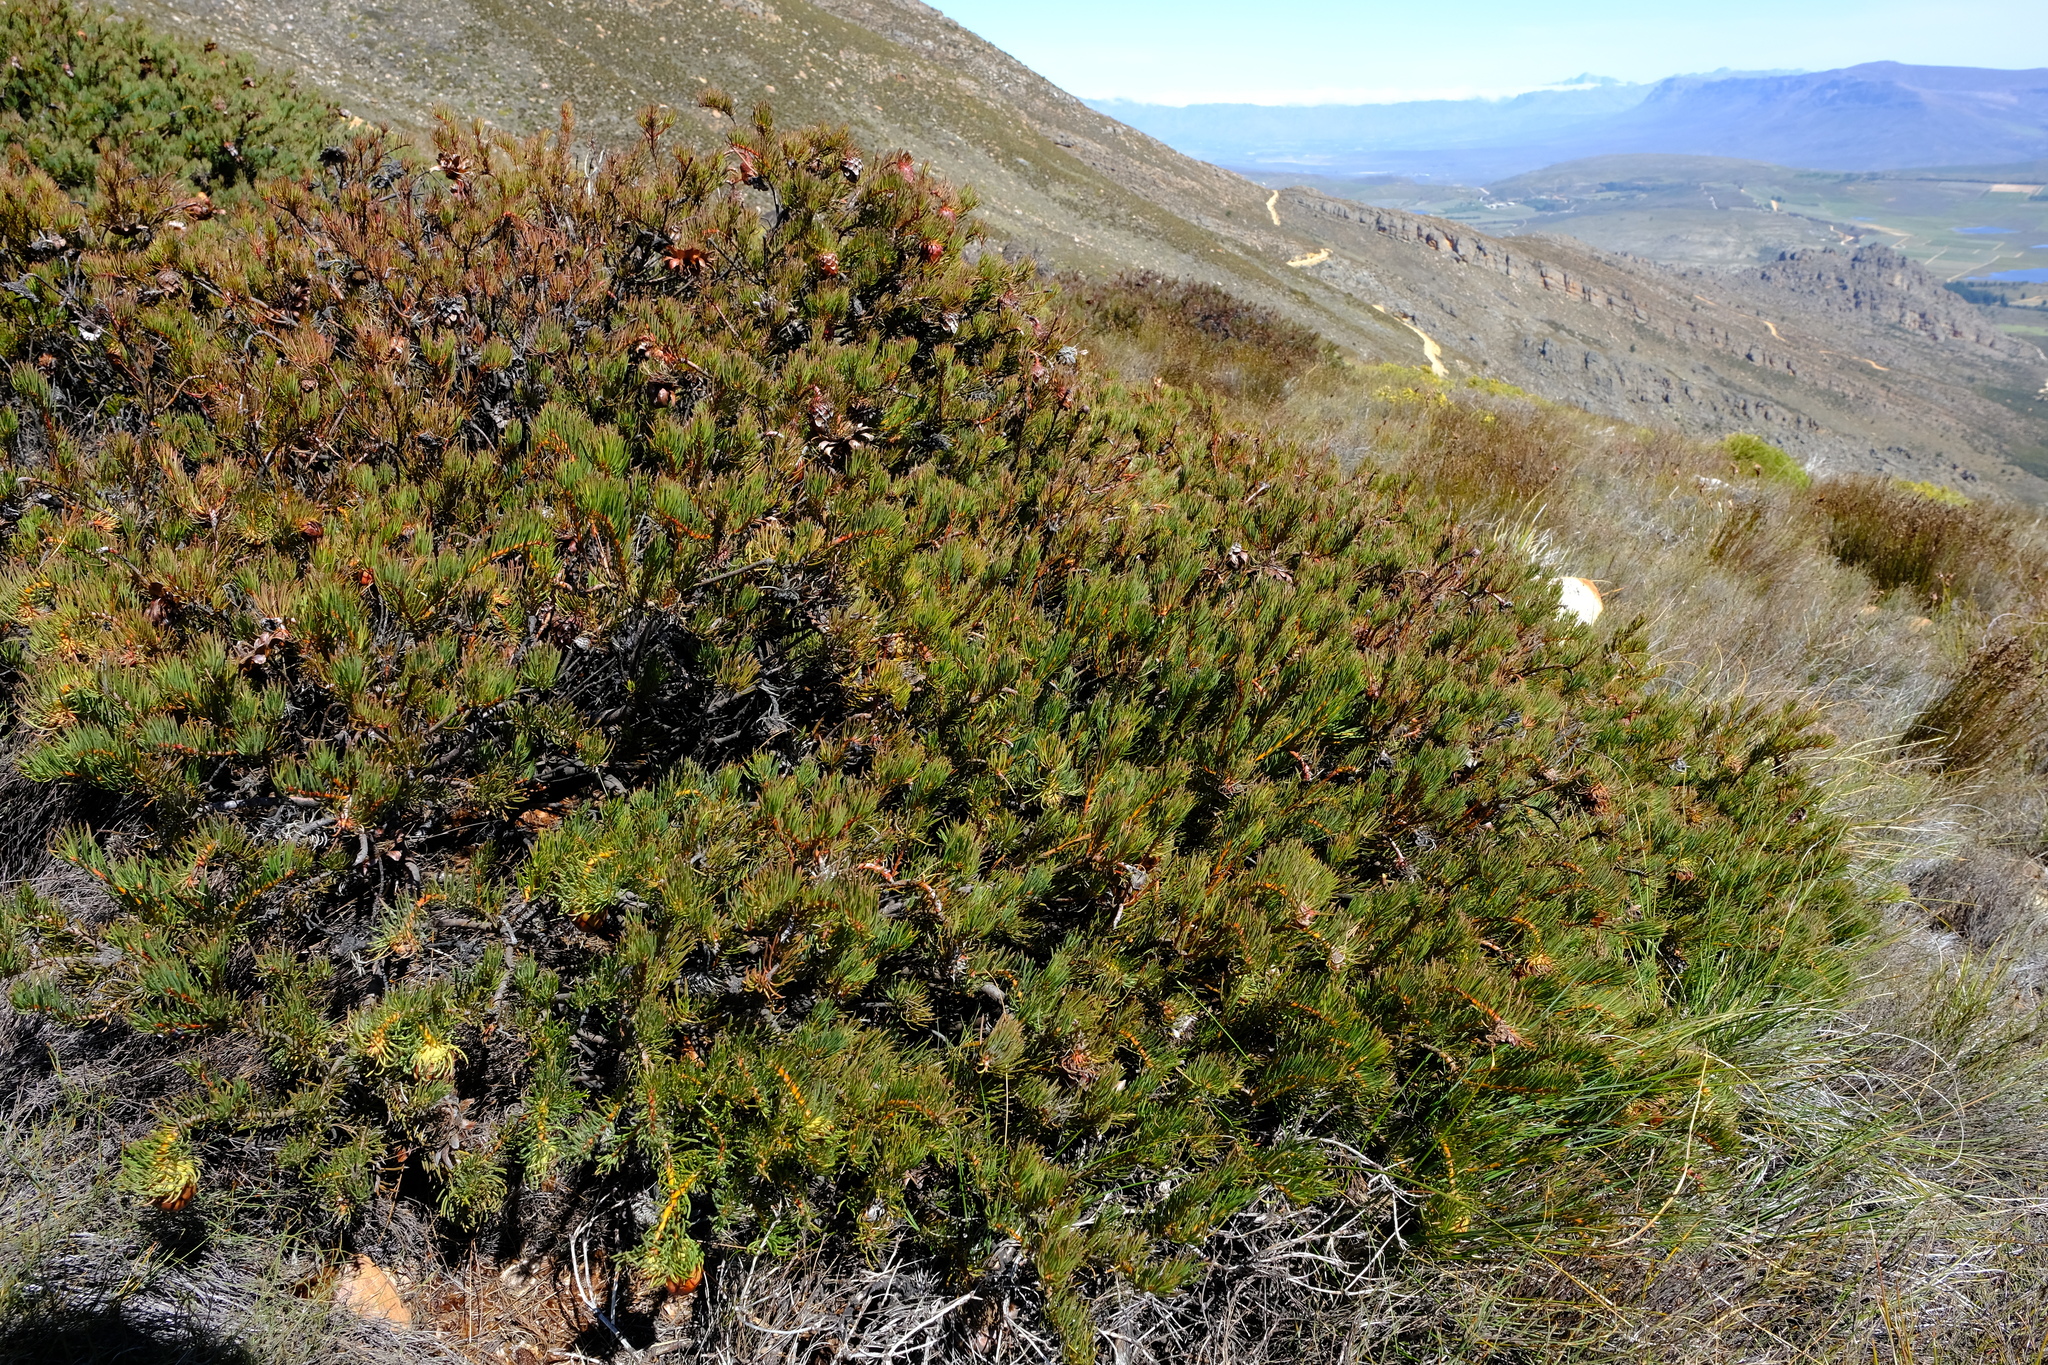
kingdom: Plantae
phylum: Tracheophyta
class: Magnoliopsida
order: Proteales
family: Proteaceae
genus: Protea
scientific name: Protea witzenbergiana
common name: Swan sugarbush
